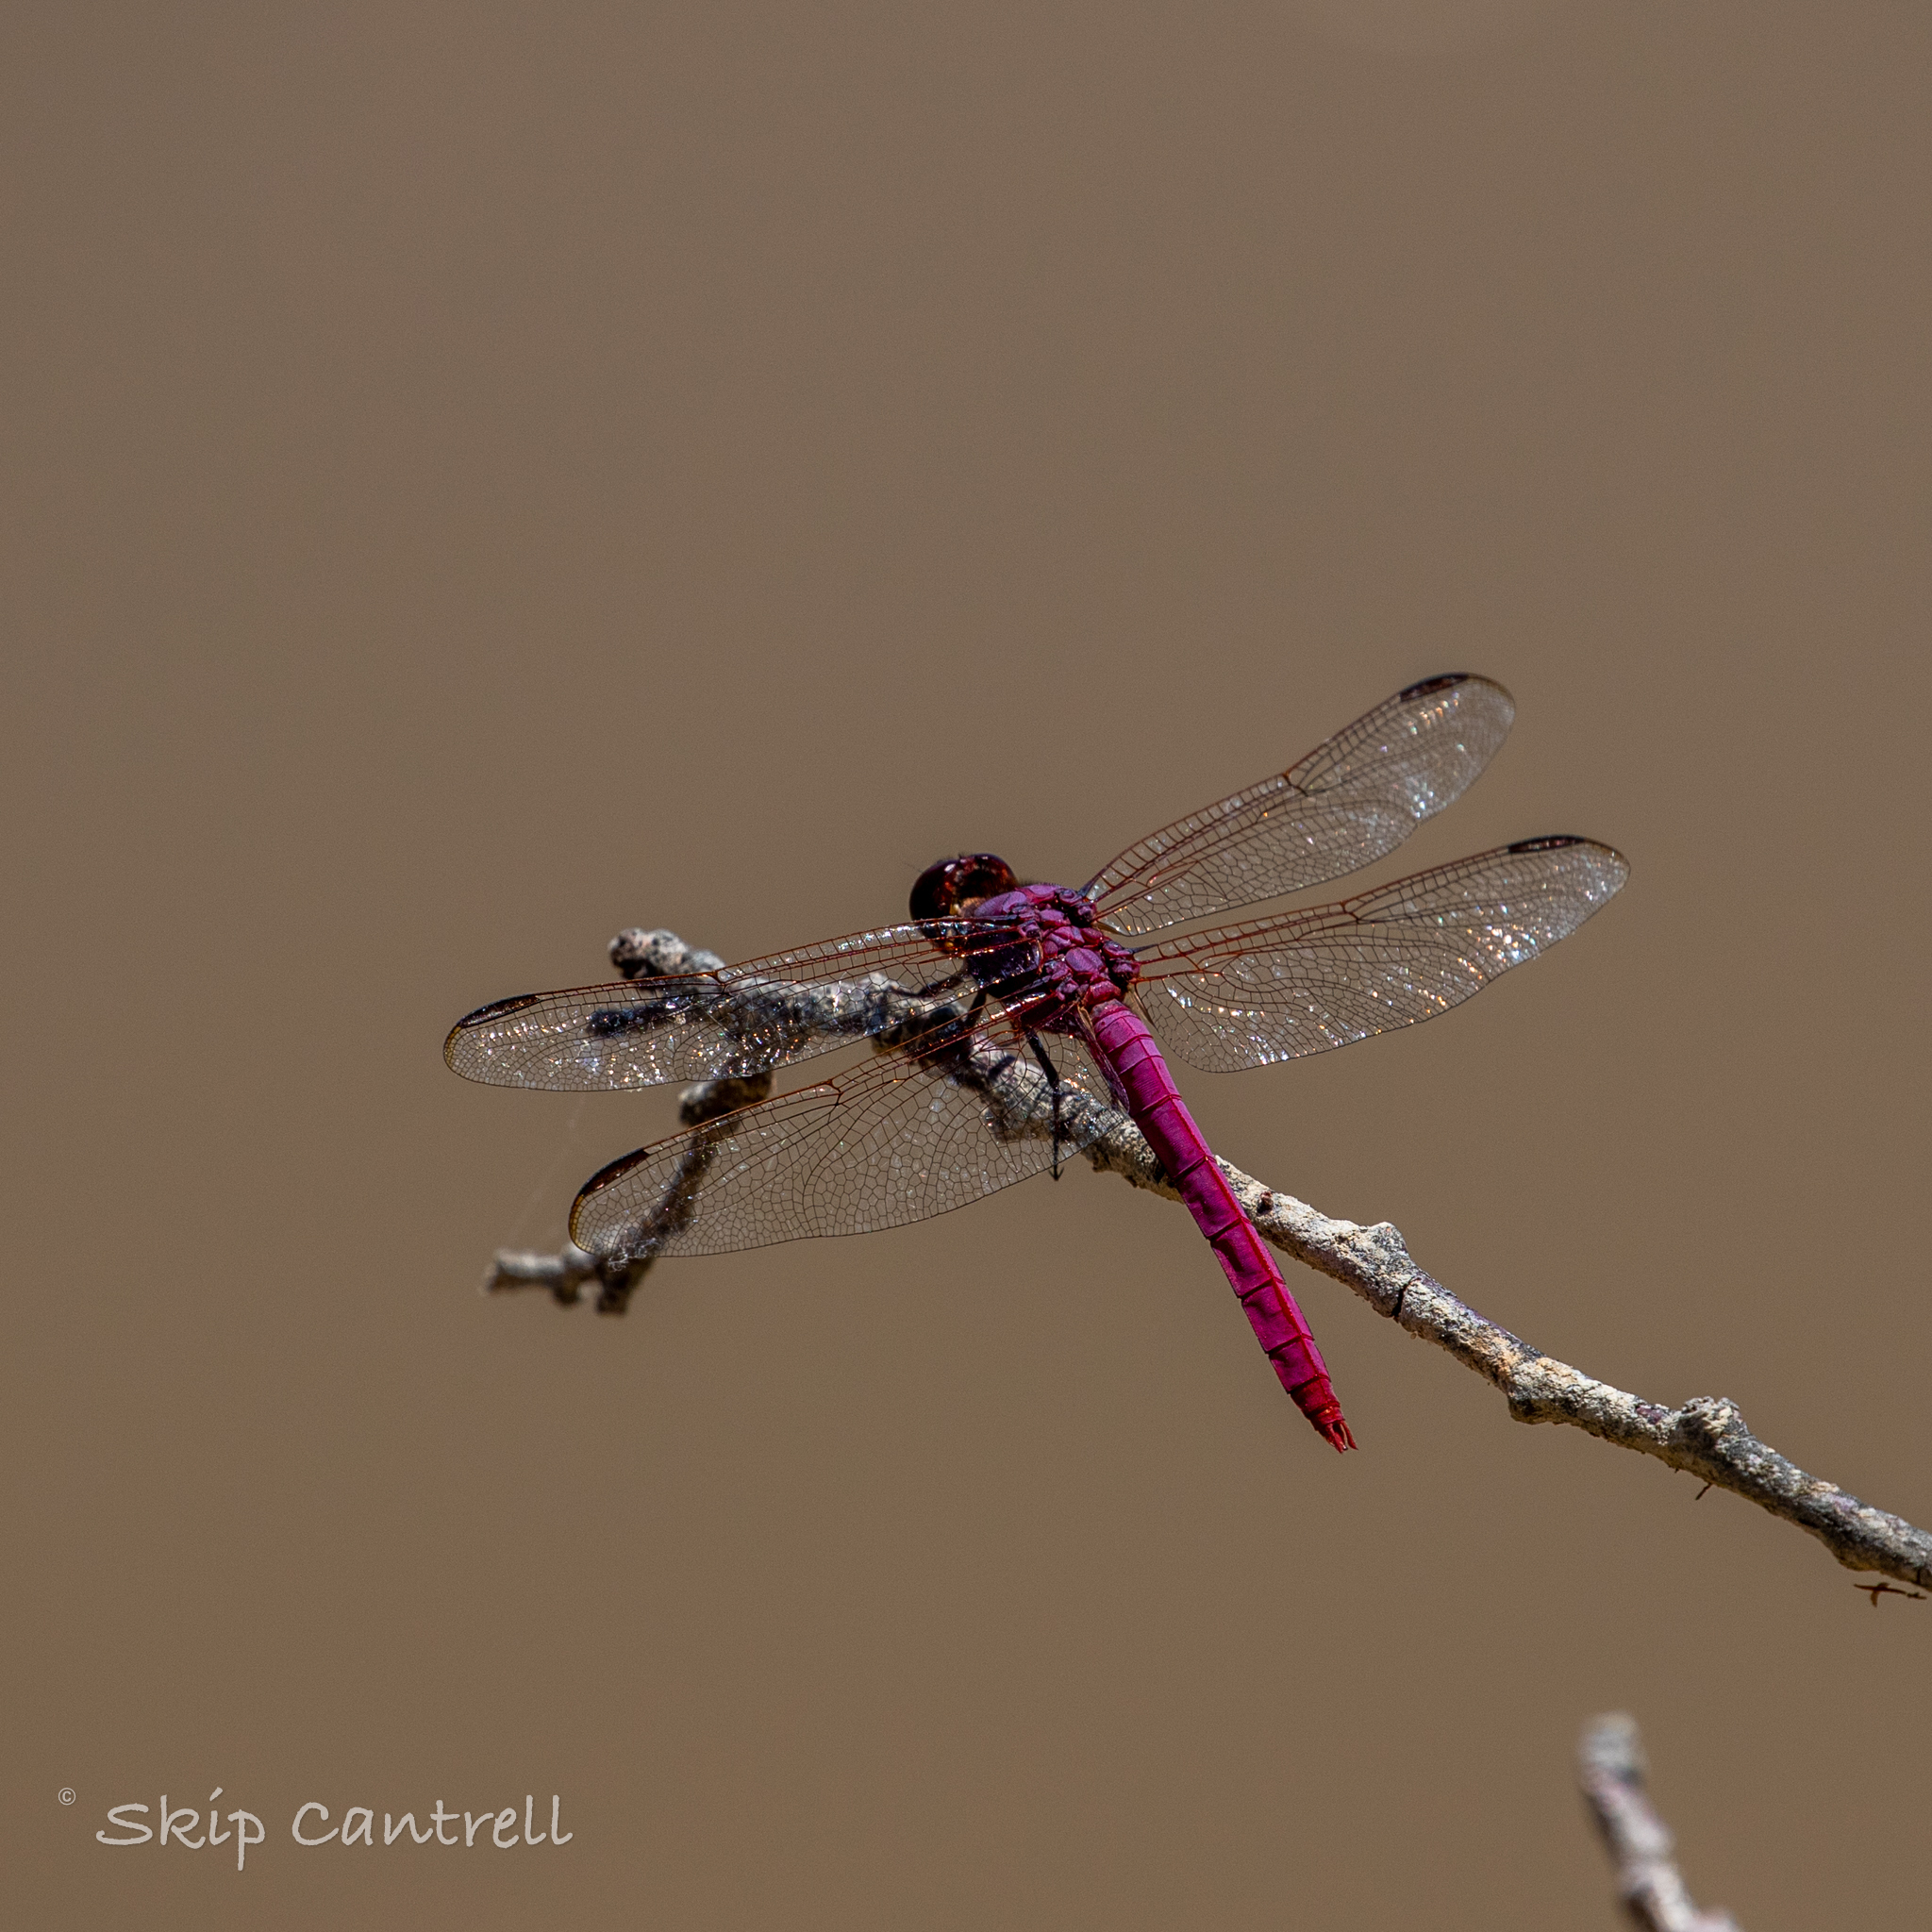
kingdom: Animalia
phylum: Arthropoda
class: Insecta
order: Odonata
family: Libellulidae
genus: Orthemis
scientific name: Orthemis ferruginea
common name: Roseate skimmer
